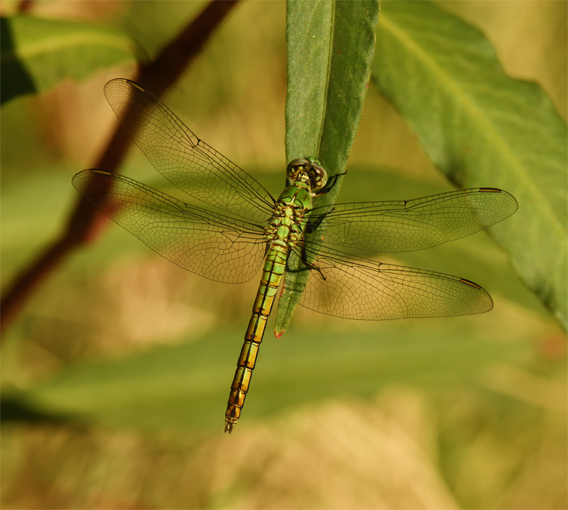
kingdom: Animalia
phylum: Arthropoda
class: Insecta
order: Odonata
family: Libellulidae
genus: Erythemis
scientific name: Erythemis collocata
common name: Western pondhawk
